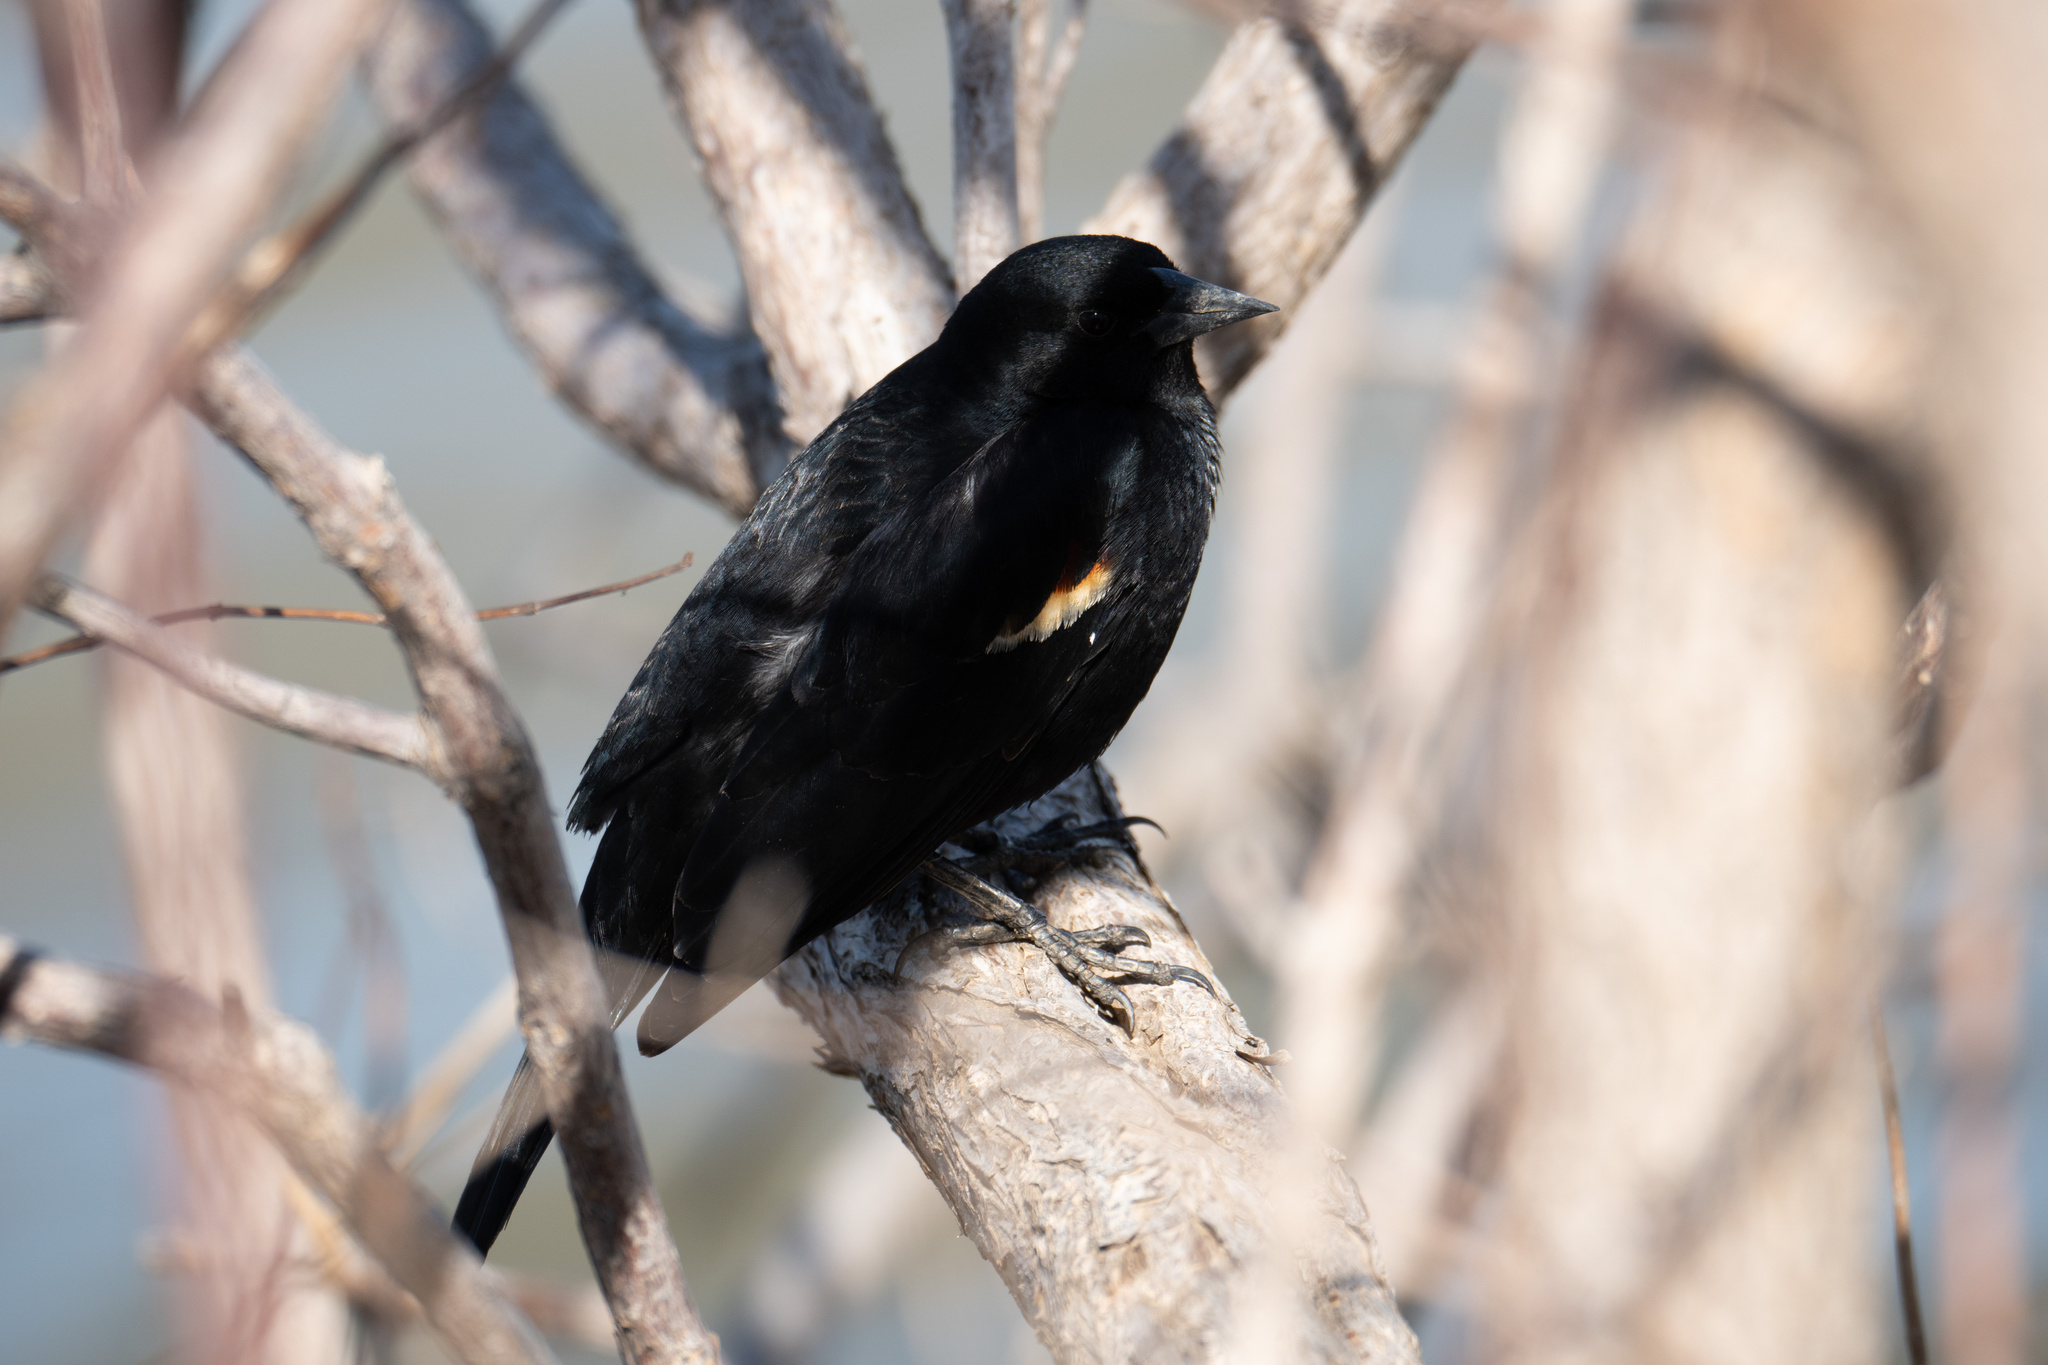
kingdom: Animalia
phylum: Chordata
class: Aves
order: Passeriformes
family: Icteridae
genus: Agelaius
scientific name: Agelaius phoeniceus
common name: Red-winged blackbird
